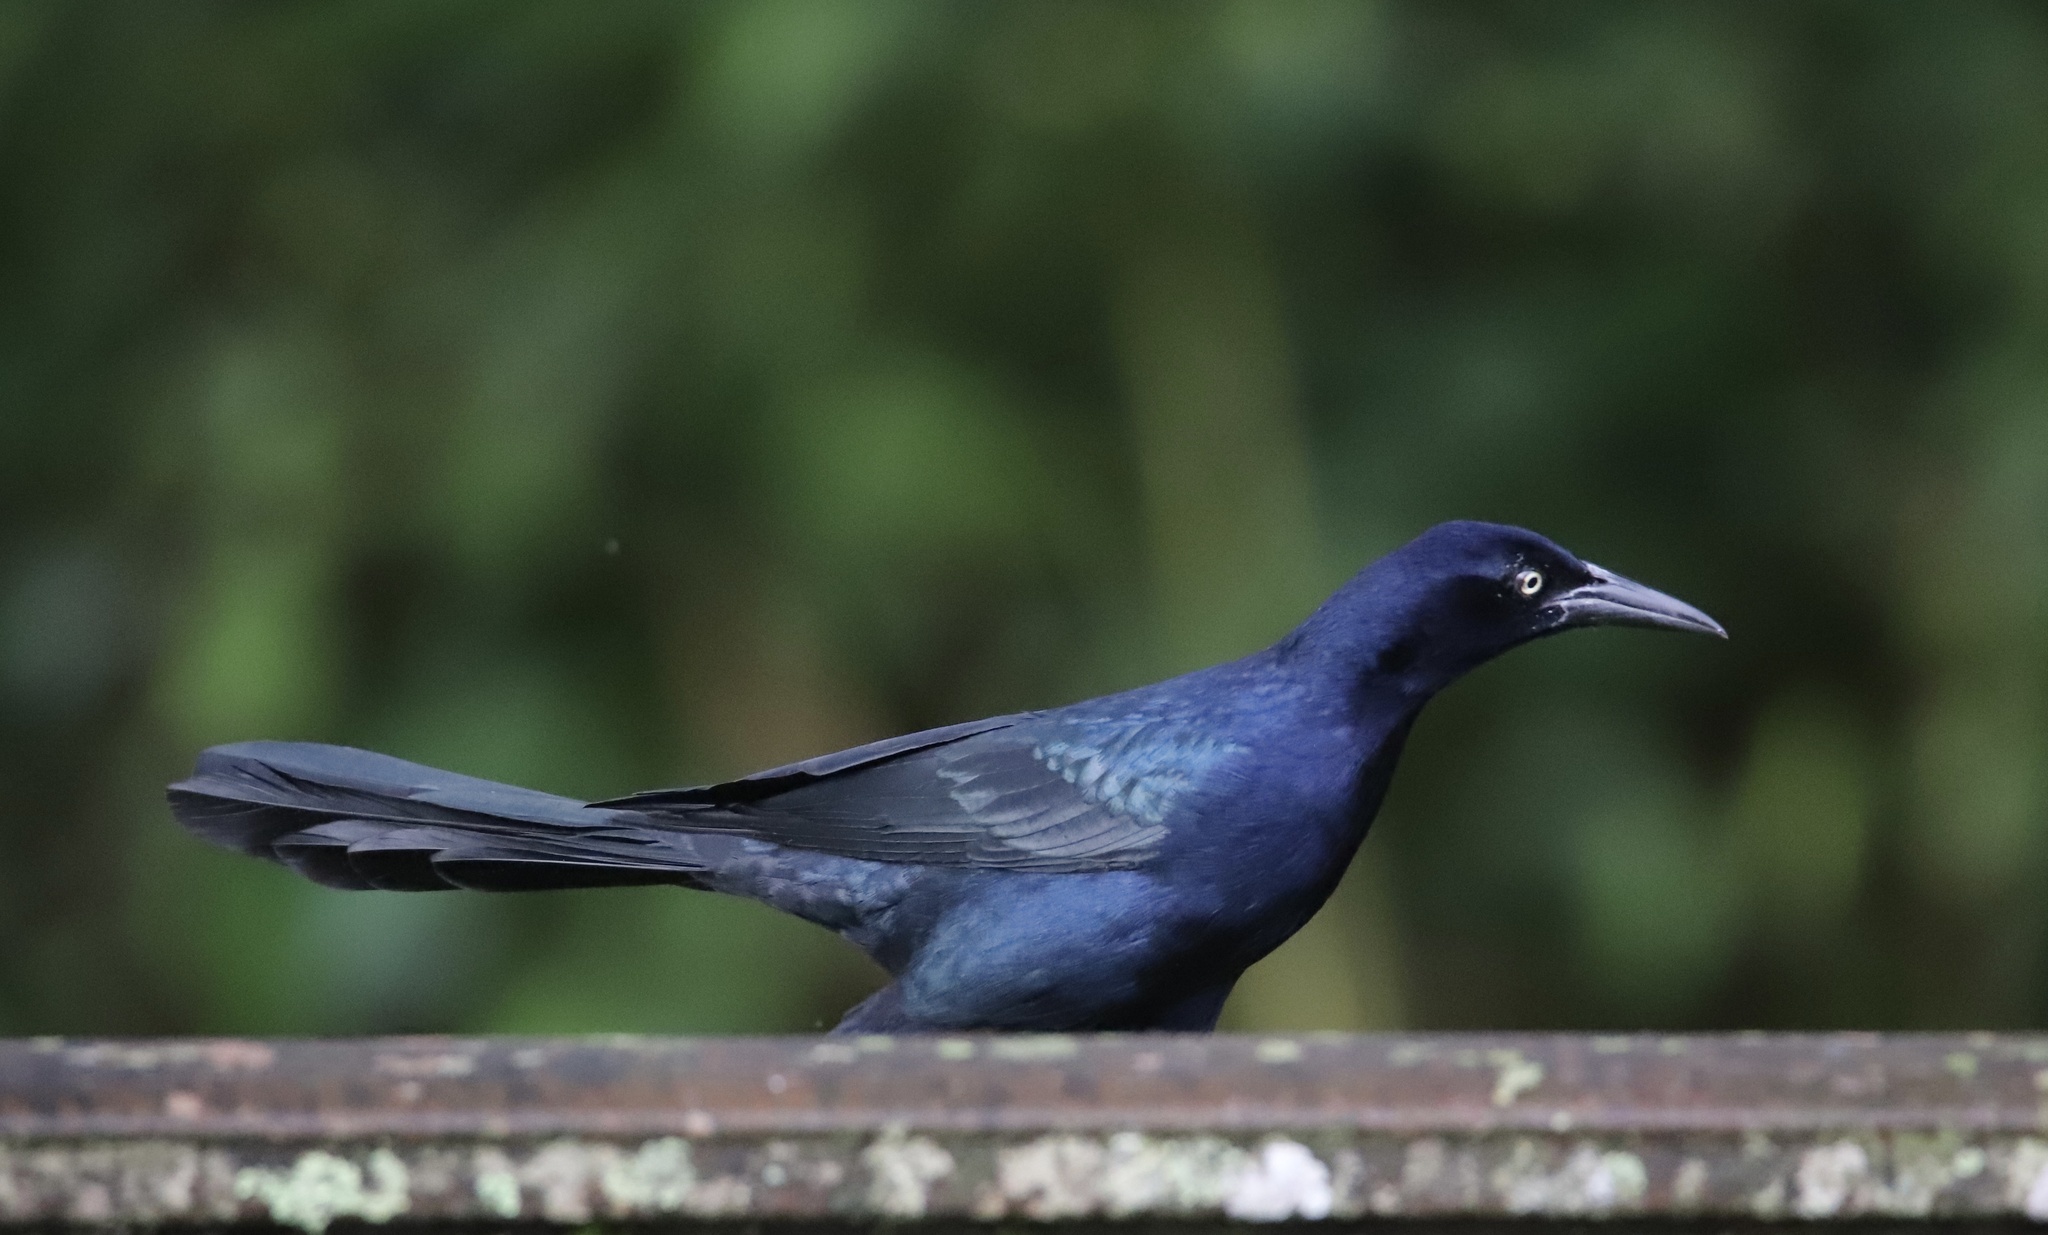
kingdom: Animalia
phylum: Chordata
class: Aves
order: Passeriformes
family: Icteridae
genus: Quiscalus
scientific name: Quiscalus mexicanus
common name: Great-tailed grackle
